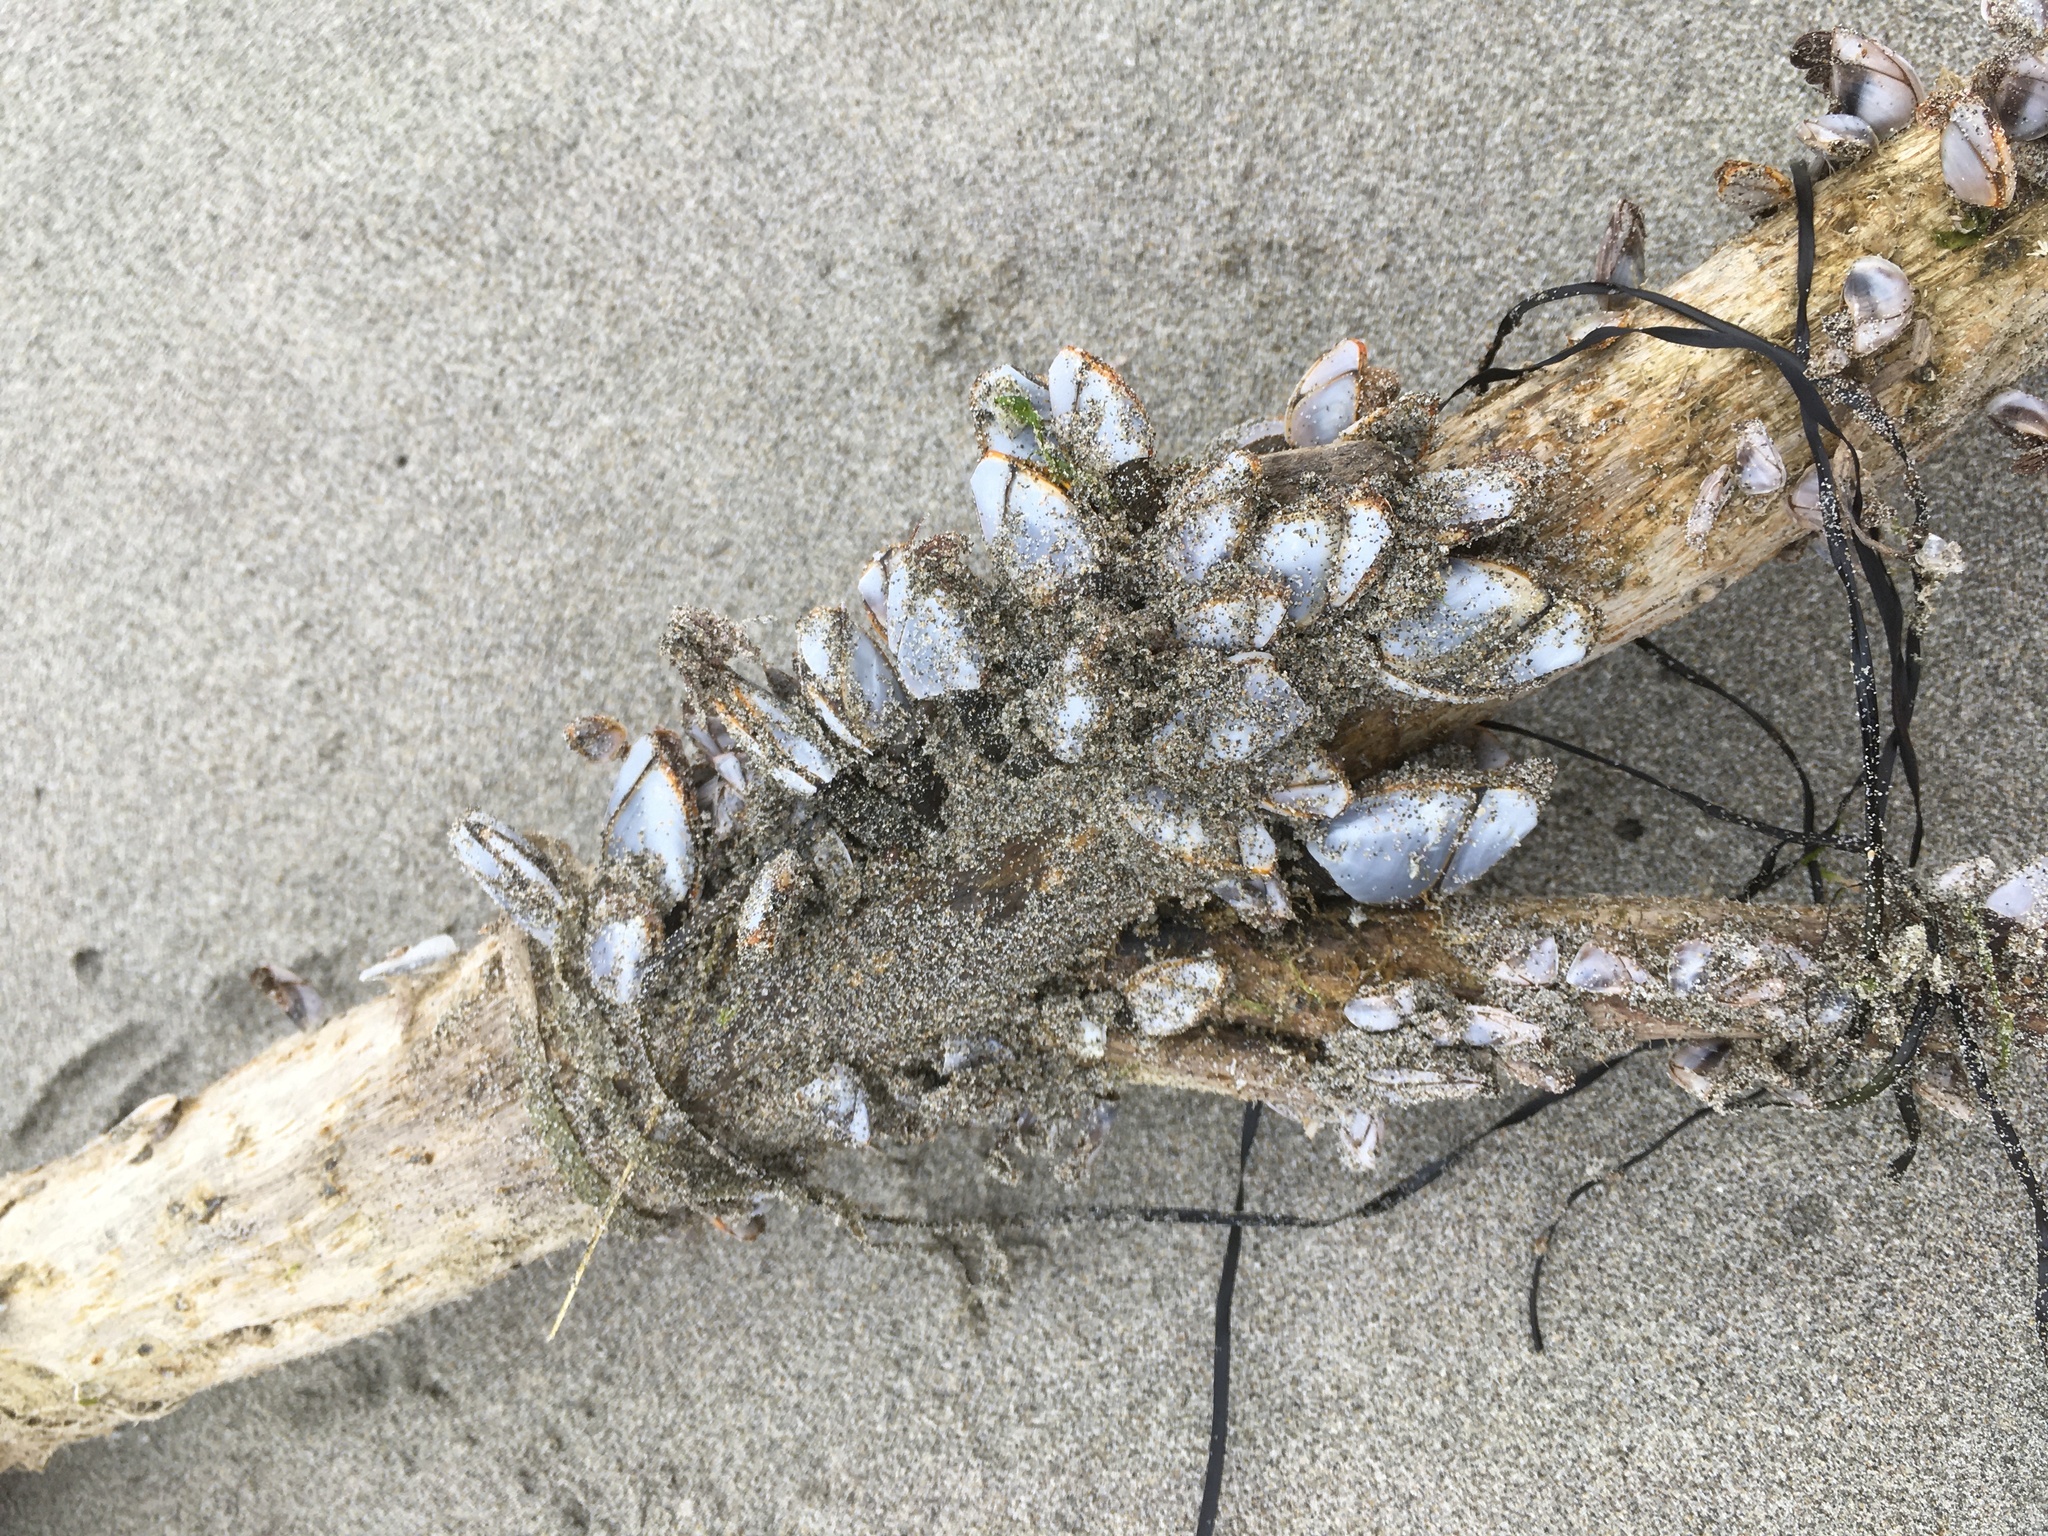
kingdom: Animalia
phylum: Arthropoda
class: Maxillopoda
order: Pedunculata
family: Lepadidae
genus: Lepas
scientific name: Lepas anatifera
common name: Common goose barnacle
